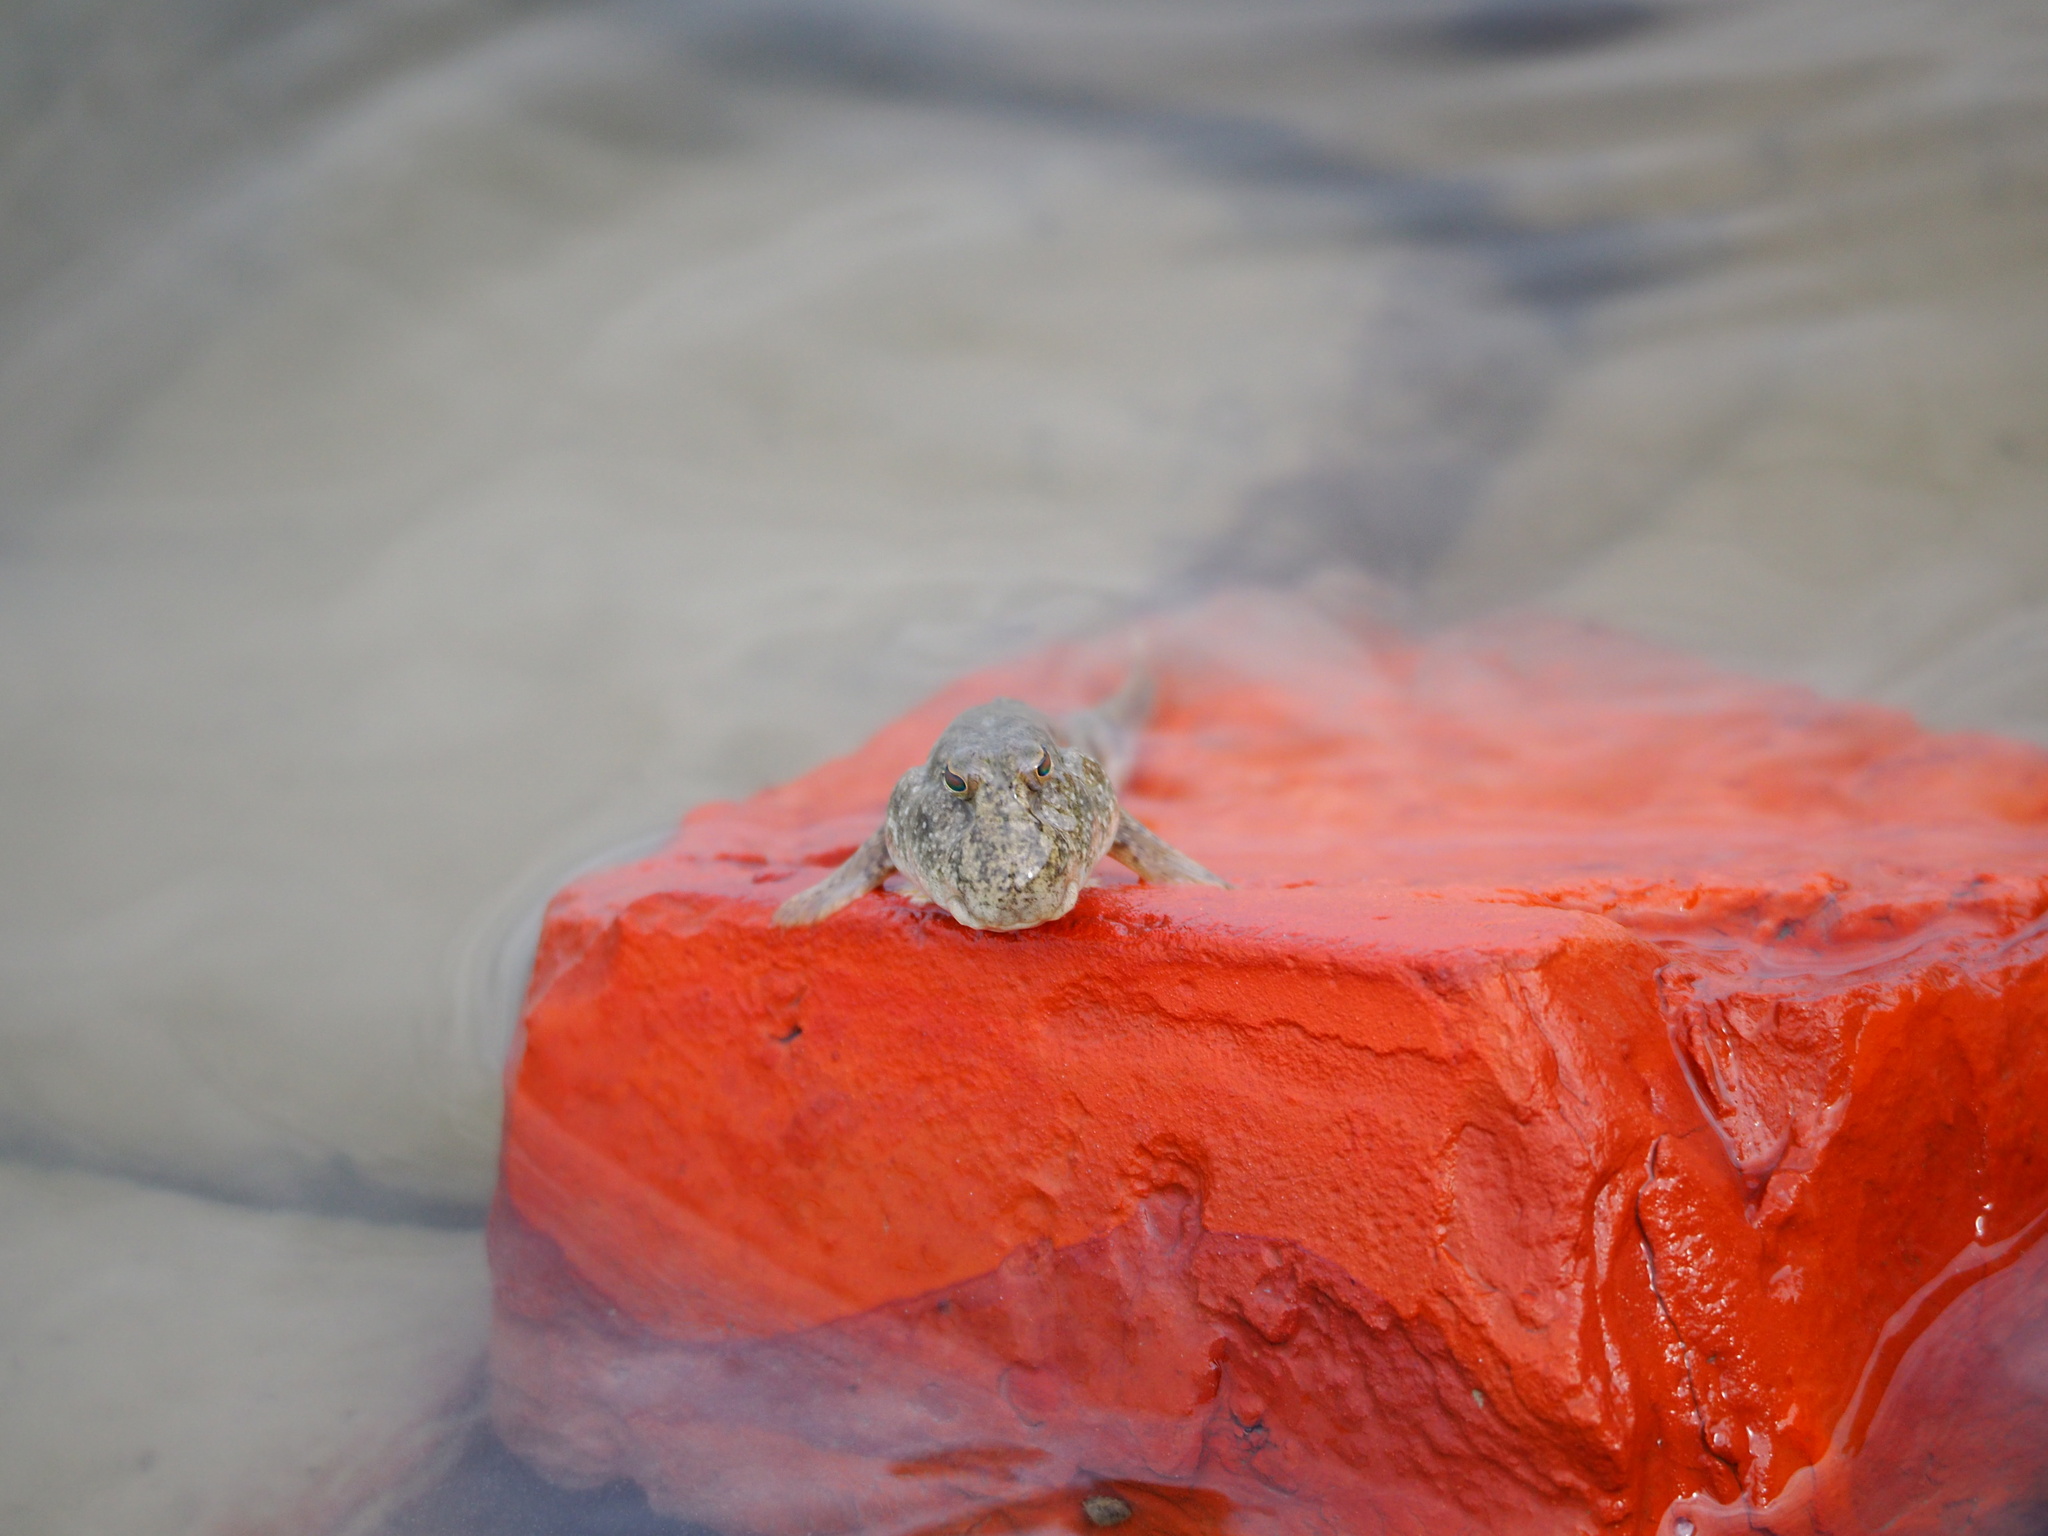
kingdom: Animalia
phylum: Chordata
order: Perciformes
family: Gobiidae
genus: Periophthalmus
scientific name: Periophthalmus modestus
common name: Black goby
